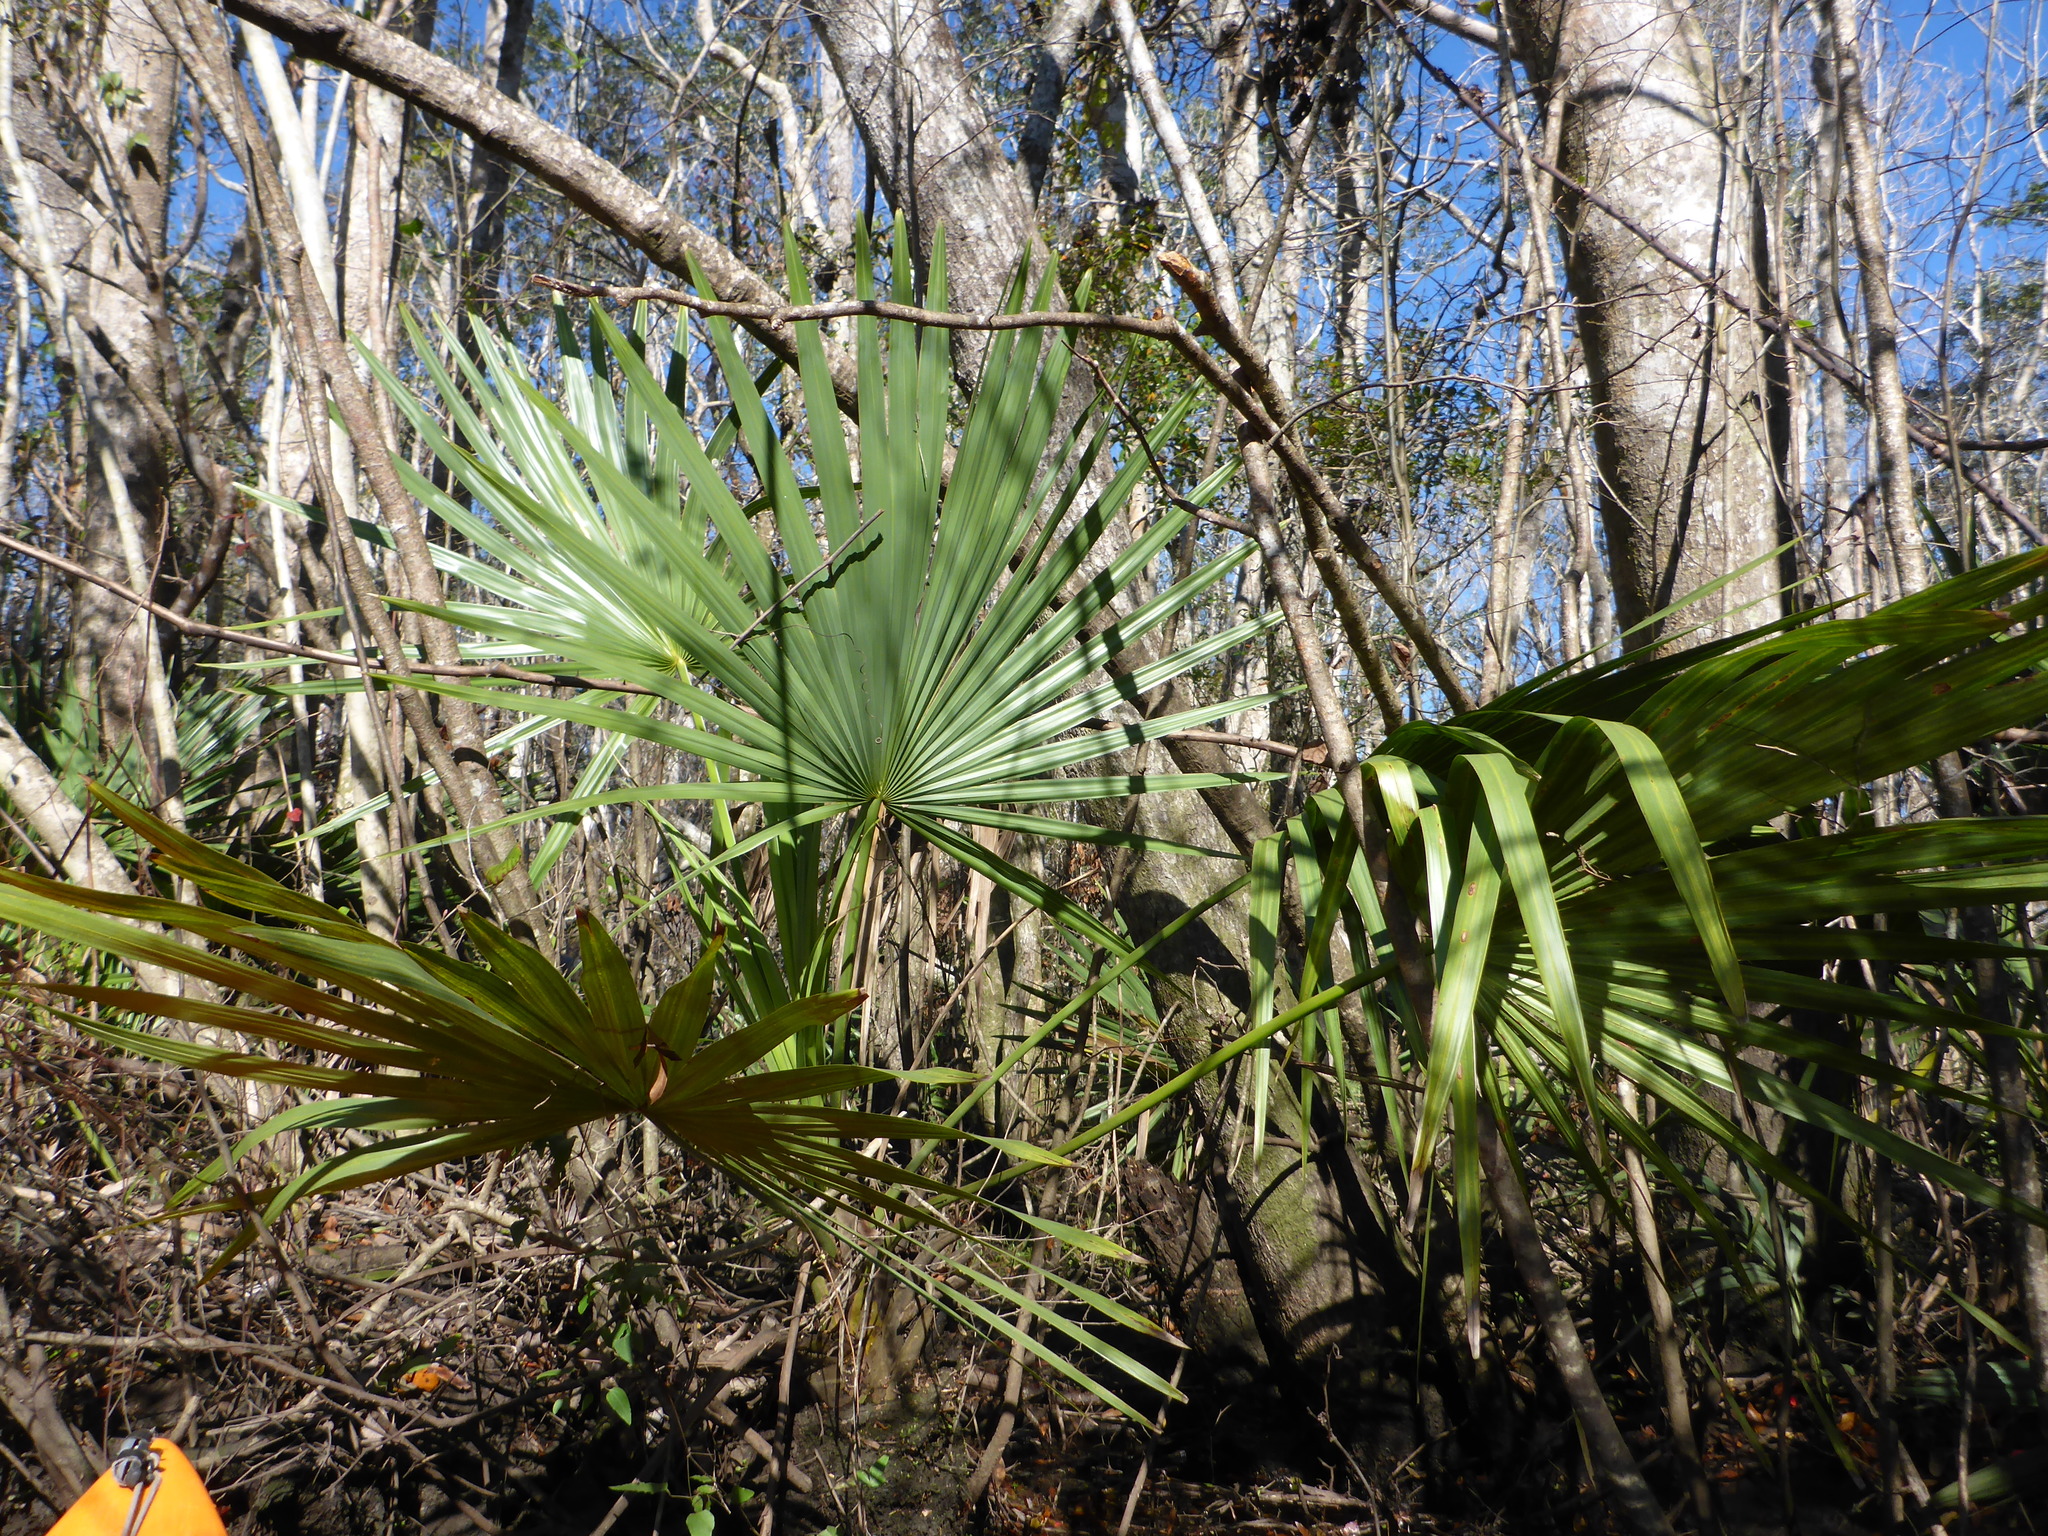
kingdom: Plantae
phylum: Tracheophyta
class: Liliopsida
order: Arecales
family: Arecaceae
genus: Sabal
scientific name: Sabal minor
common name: Dwarf palmetto
